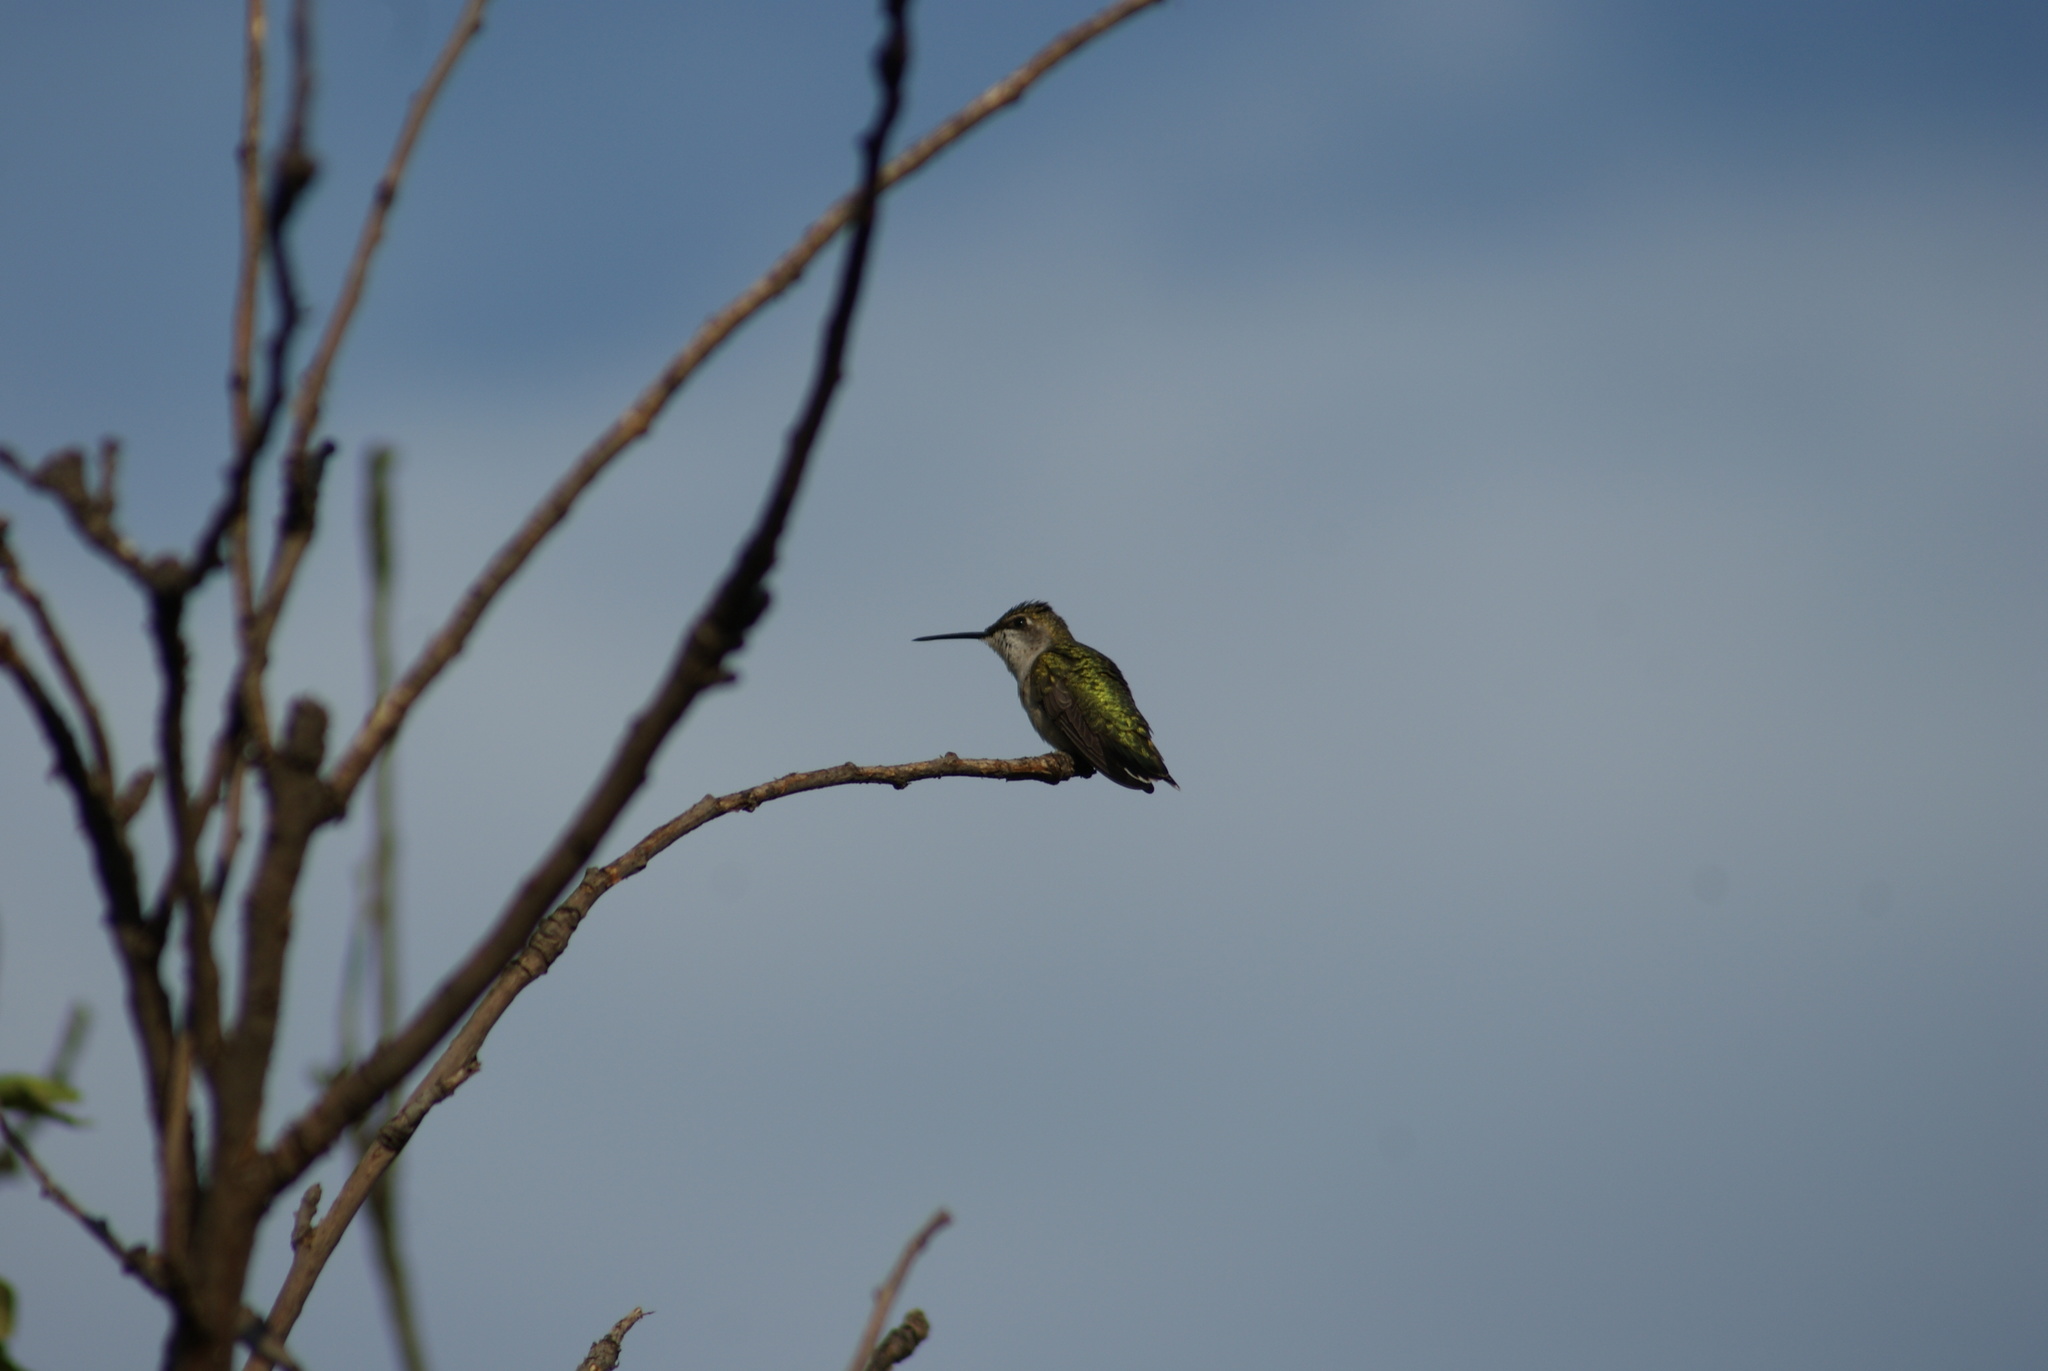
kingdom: Animalia
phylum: Chordata
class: Aves
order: Apodiformes
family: Trochilidae
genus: Archilochus
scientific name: Archilochus colubris
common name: Ruby-throated hummingbird
